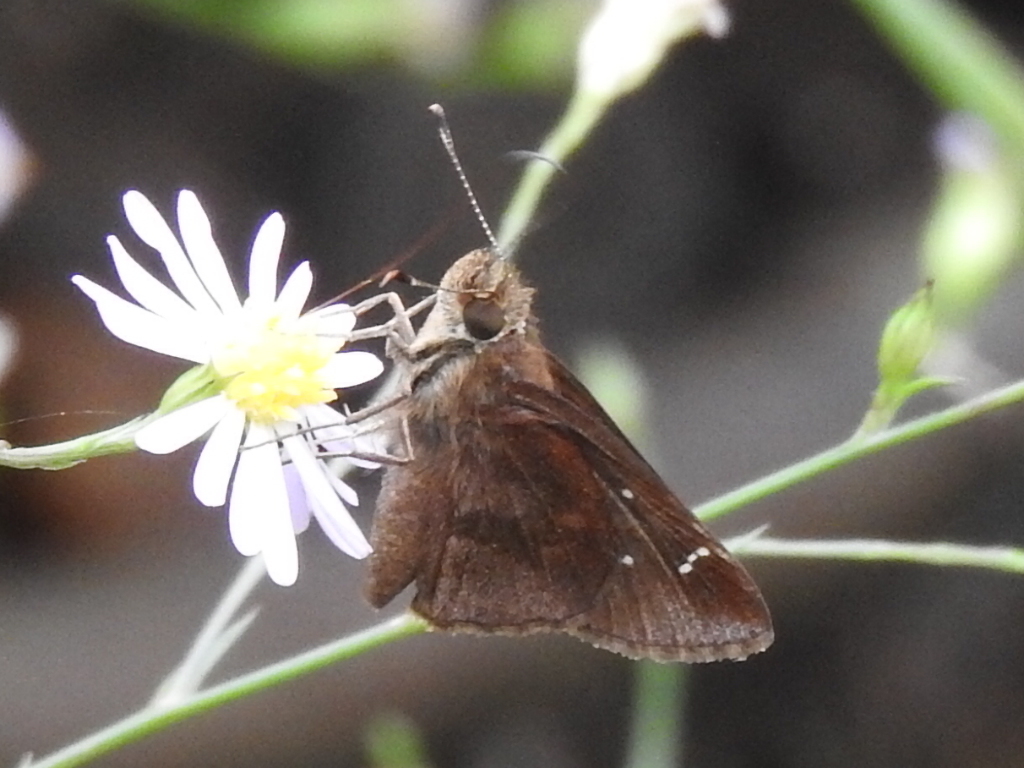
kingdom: Animalia
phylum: Arthropoda
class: Insecta
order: Lepidoptera
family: Hesperiidae
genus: Lerema
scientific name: Lerema accius
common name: Clouded skipper
